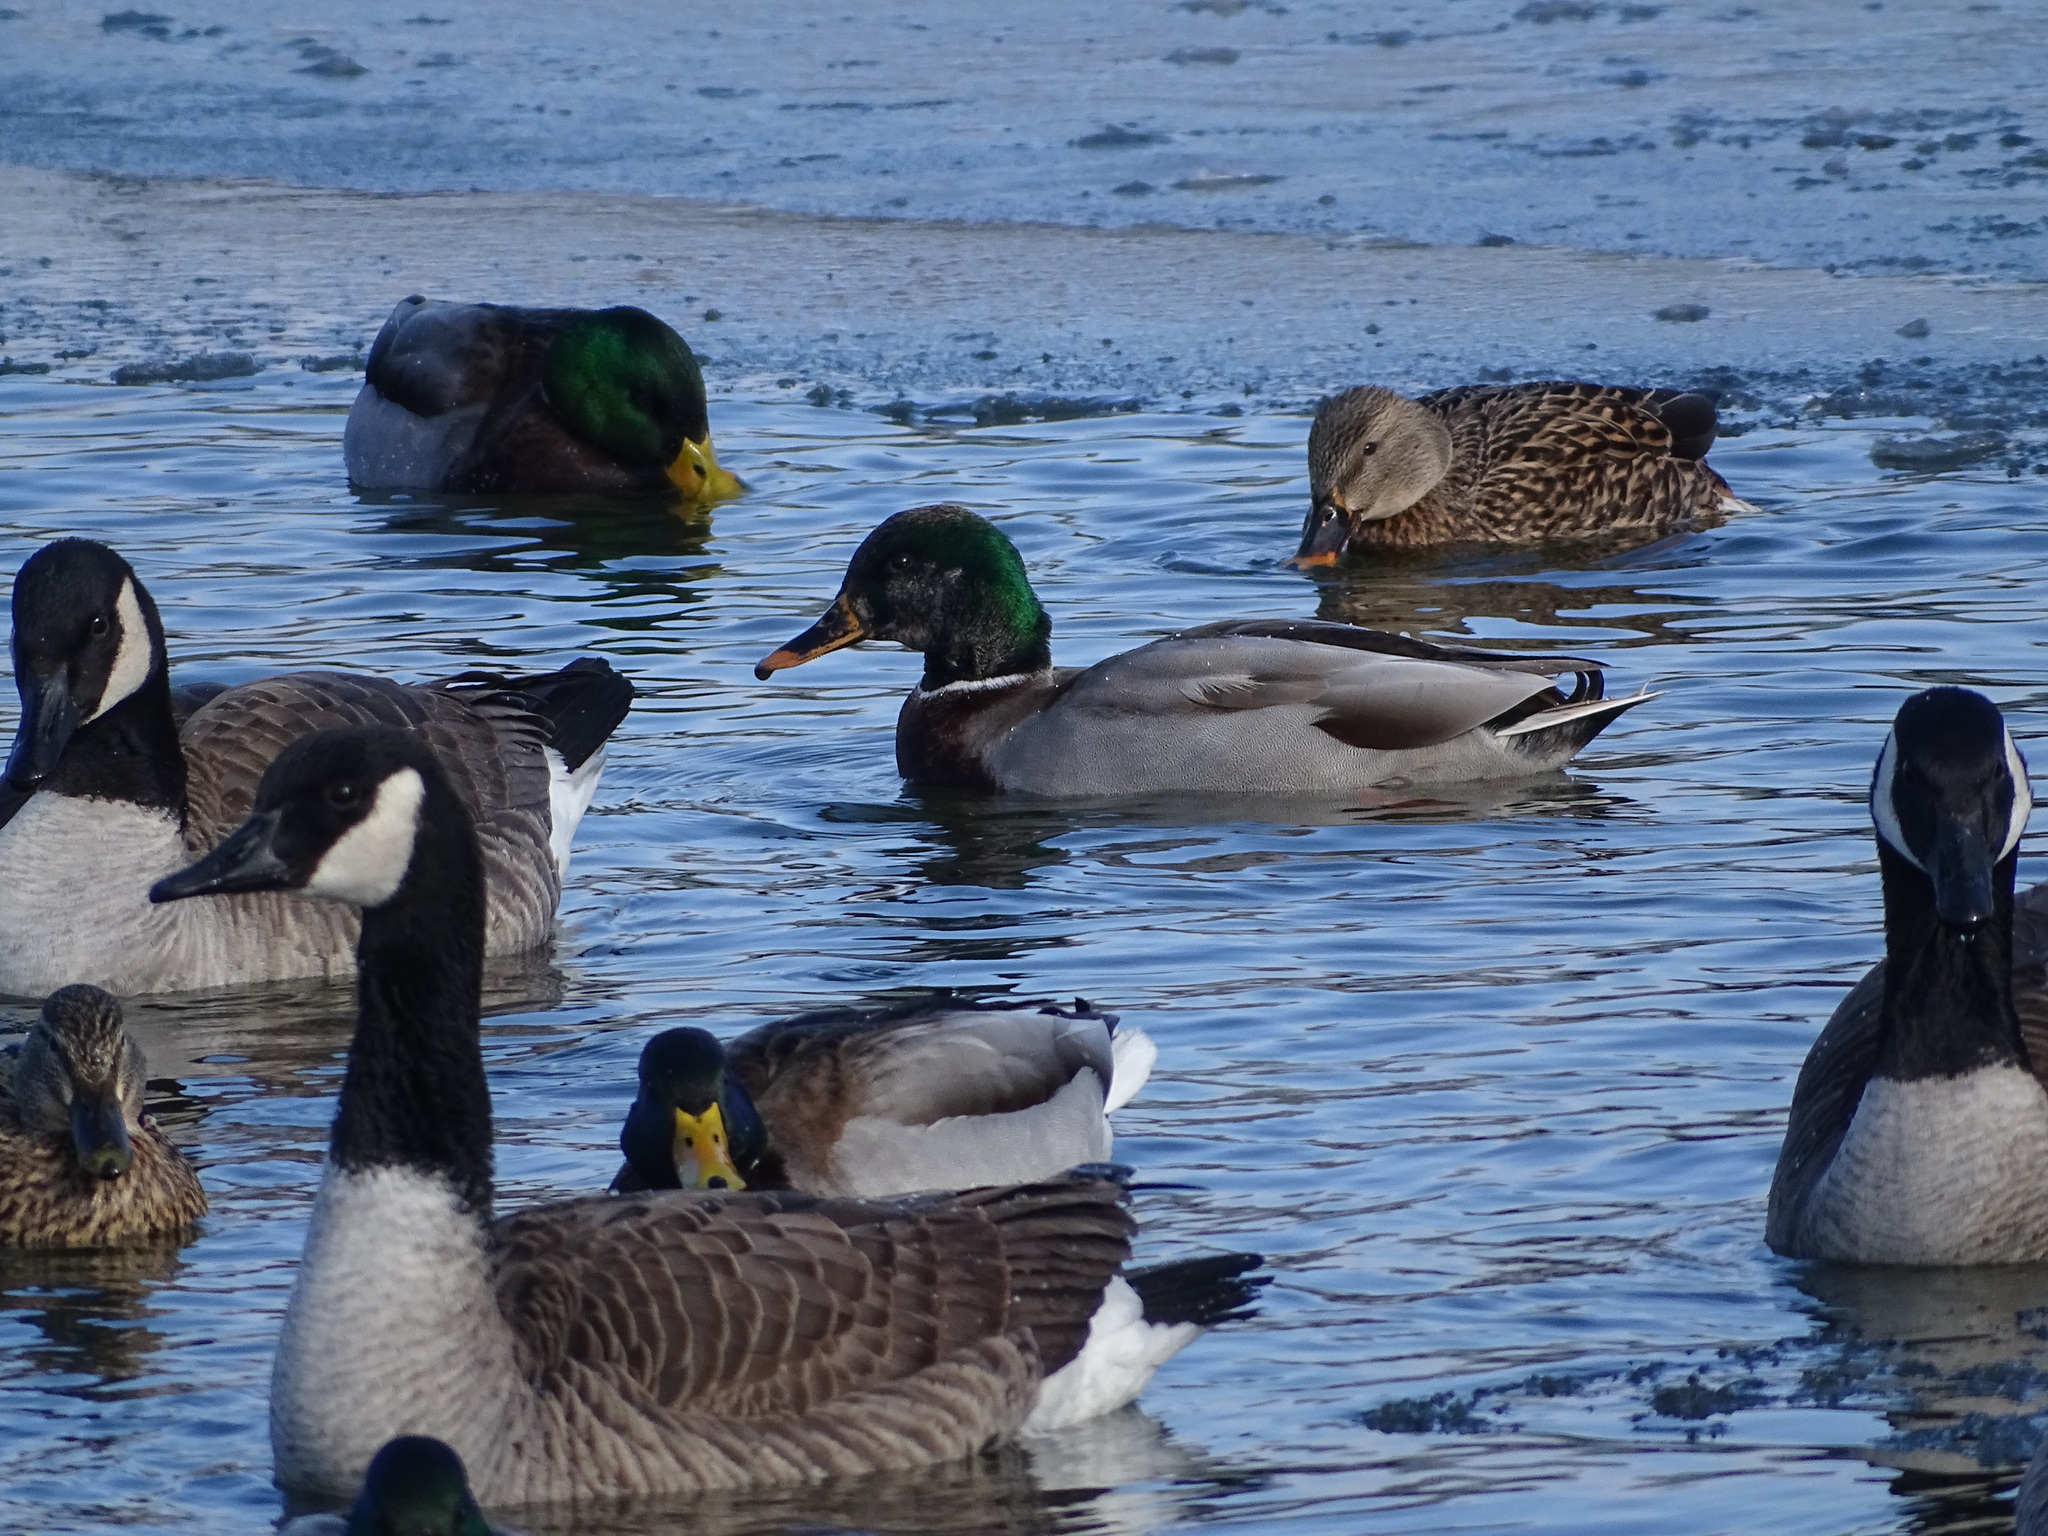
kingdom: Animalia
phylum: Chordata
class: Aves
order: Anseriformes
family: Anatidae
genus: Anas
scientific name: Anas platyrhynchos
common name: Mallard
